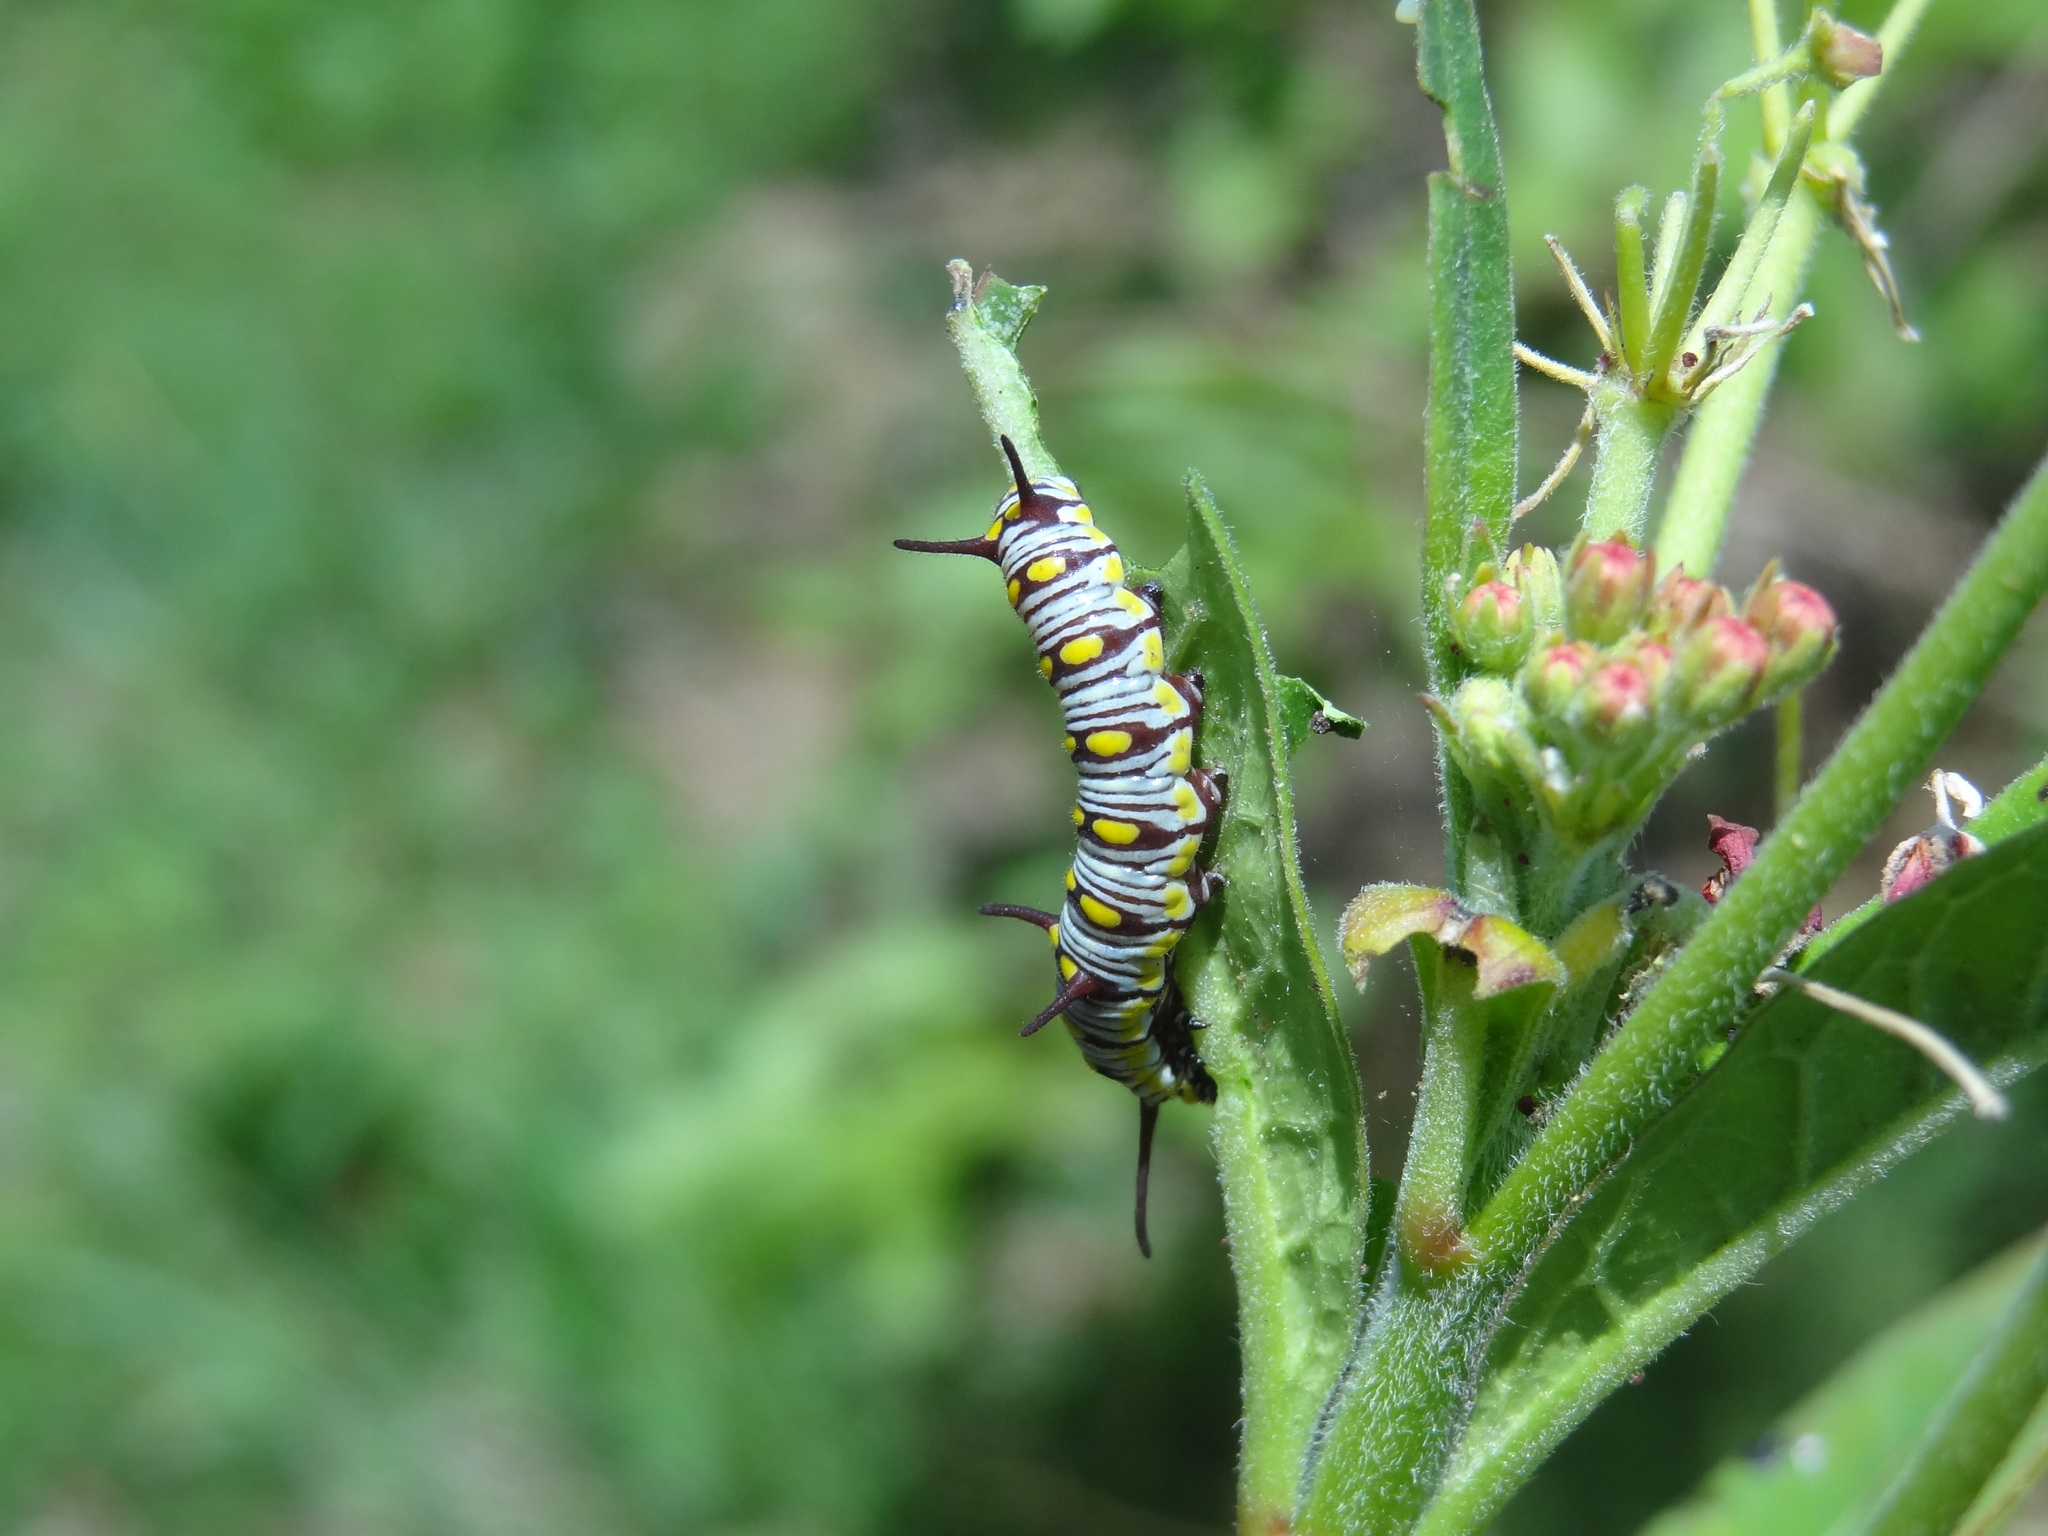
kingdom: Animalia
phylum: Arthropoda
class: Insecta
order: Lepidoptera
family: Nymphalidae
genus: Danaus
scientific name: Danaus chrysippus
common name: Plain tiger
